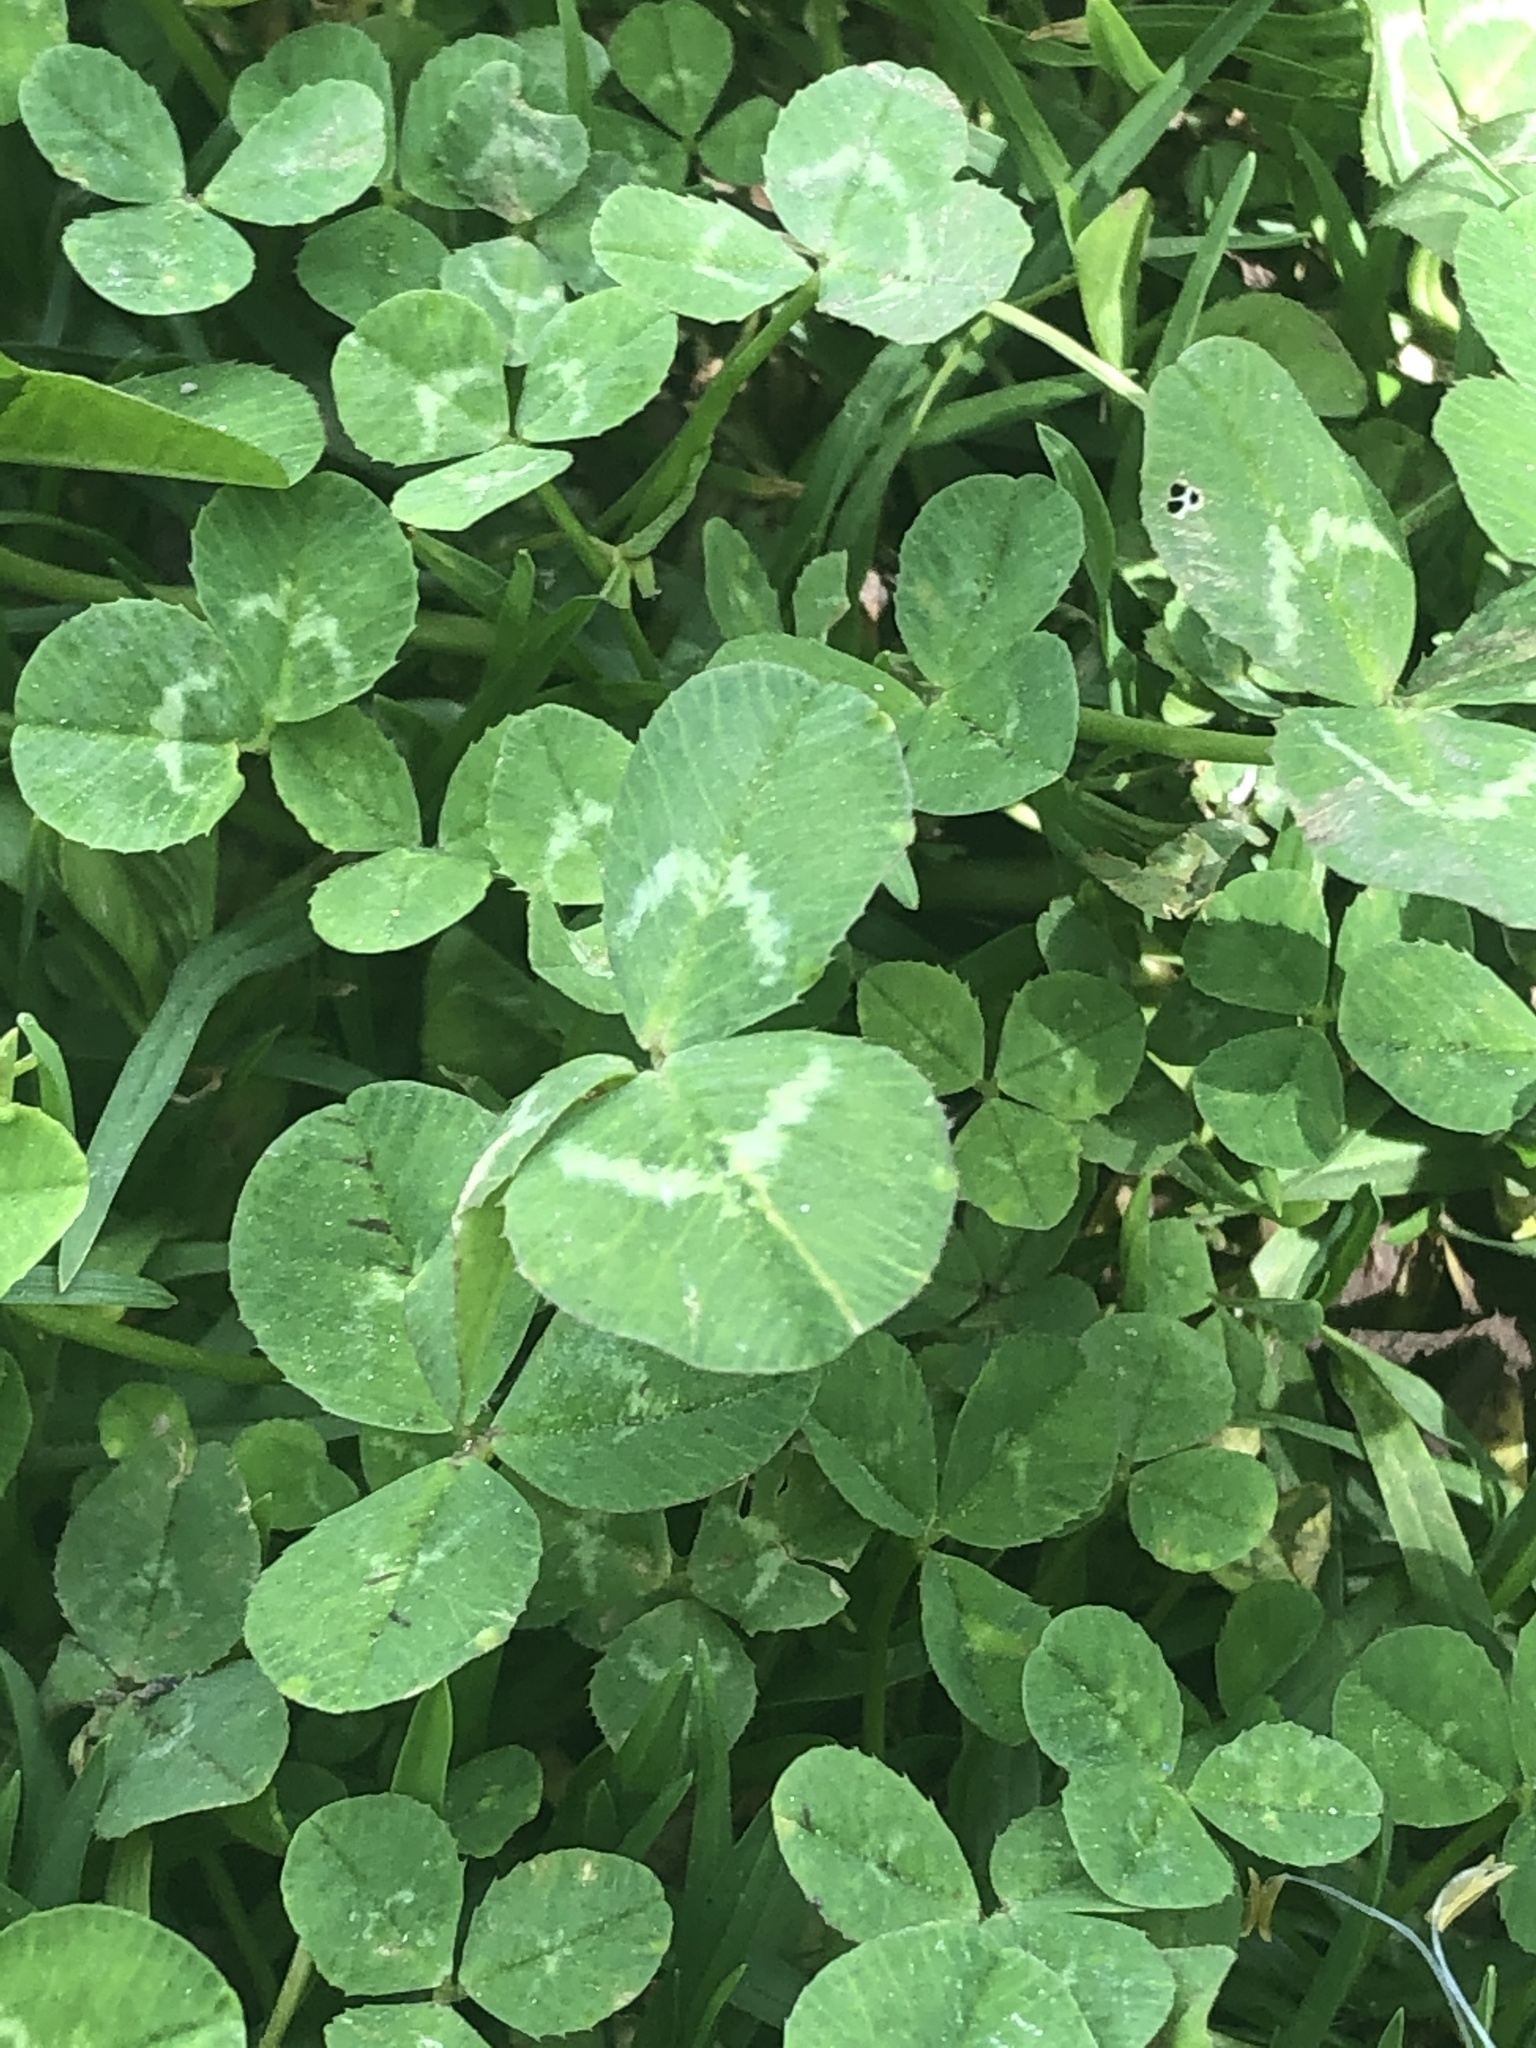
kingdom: Plantae
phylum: Tracheophyta
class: Magnoliopsida
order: Fabales
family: Fabaceae
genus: Trifolium
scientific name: Trifolium repens
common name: White clover
